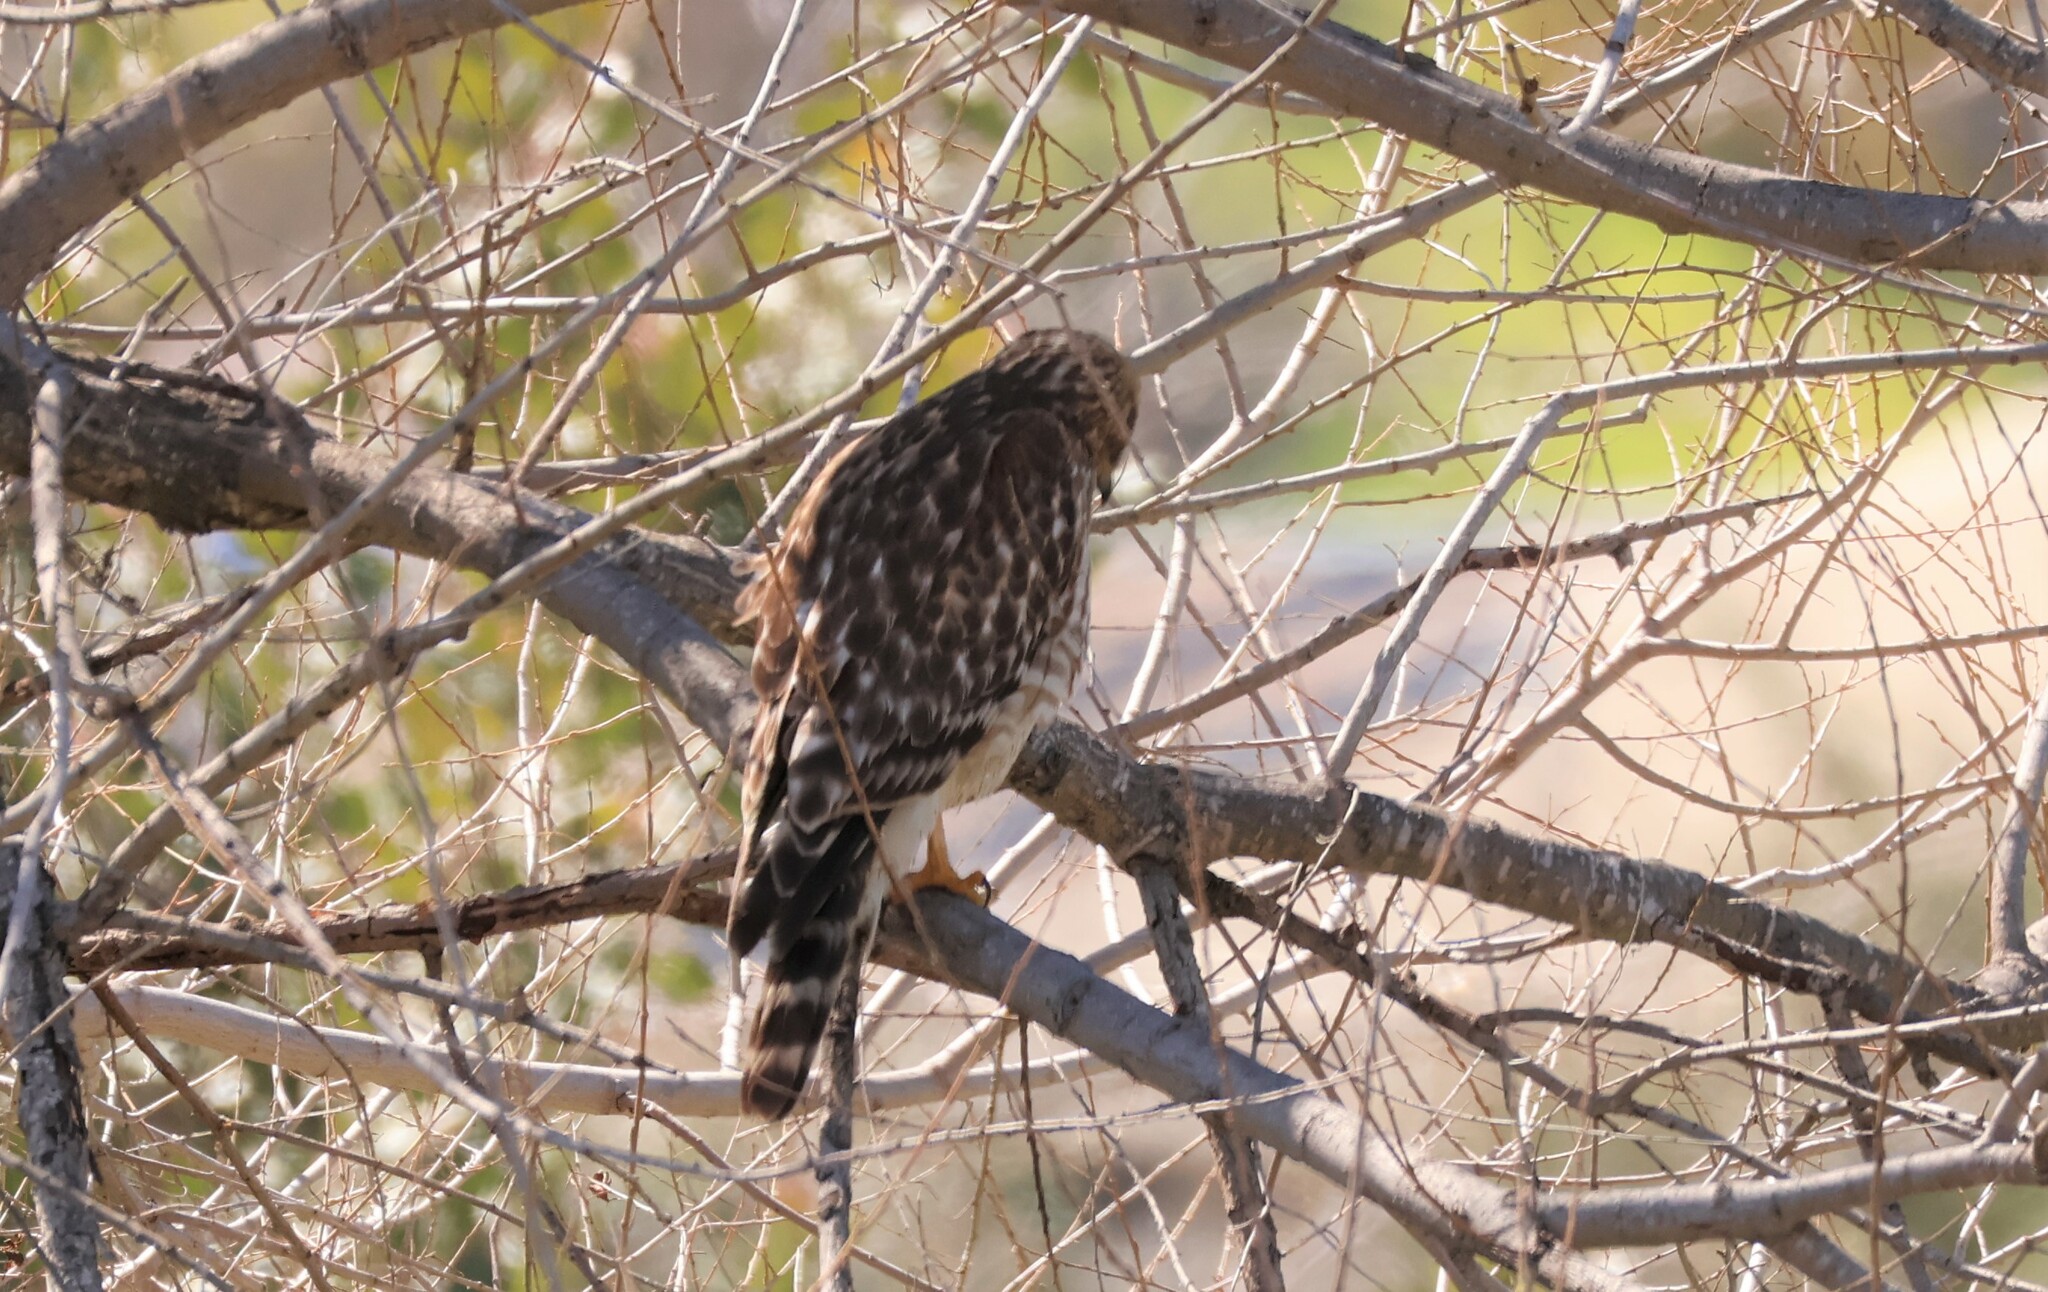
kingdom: Animalia
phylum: Chordata
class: Aves
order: Accipitriformes
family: Accipitridae
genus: Buteo
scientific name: Buteo lineatus
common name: Red-shouldered hawk
